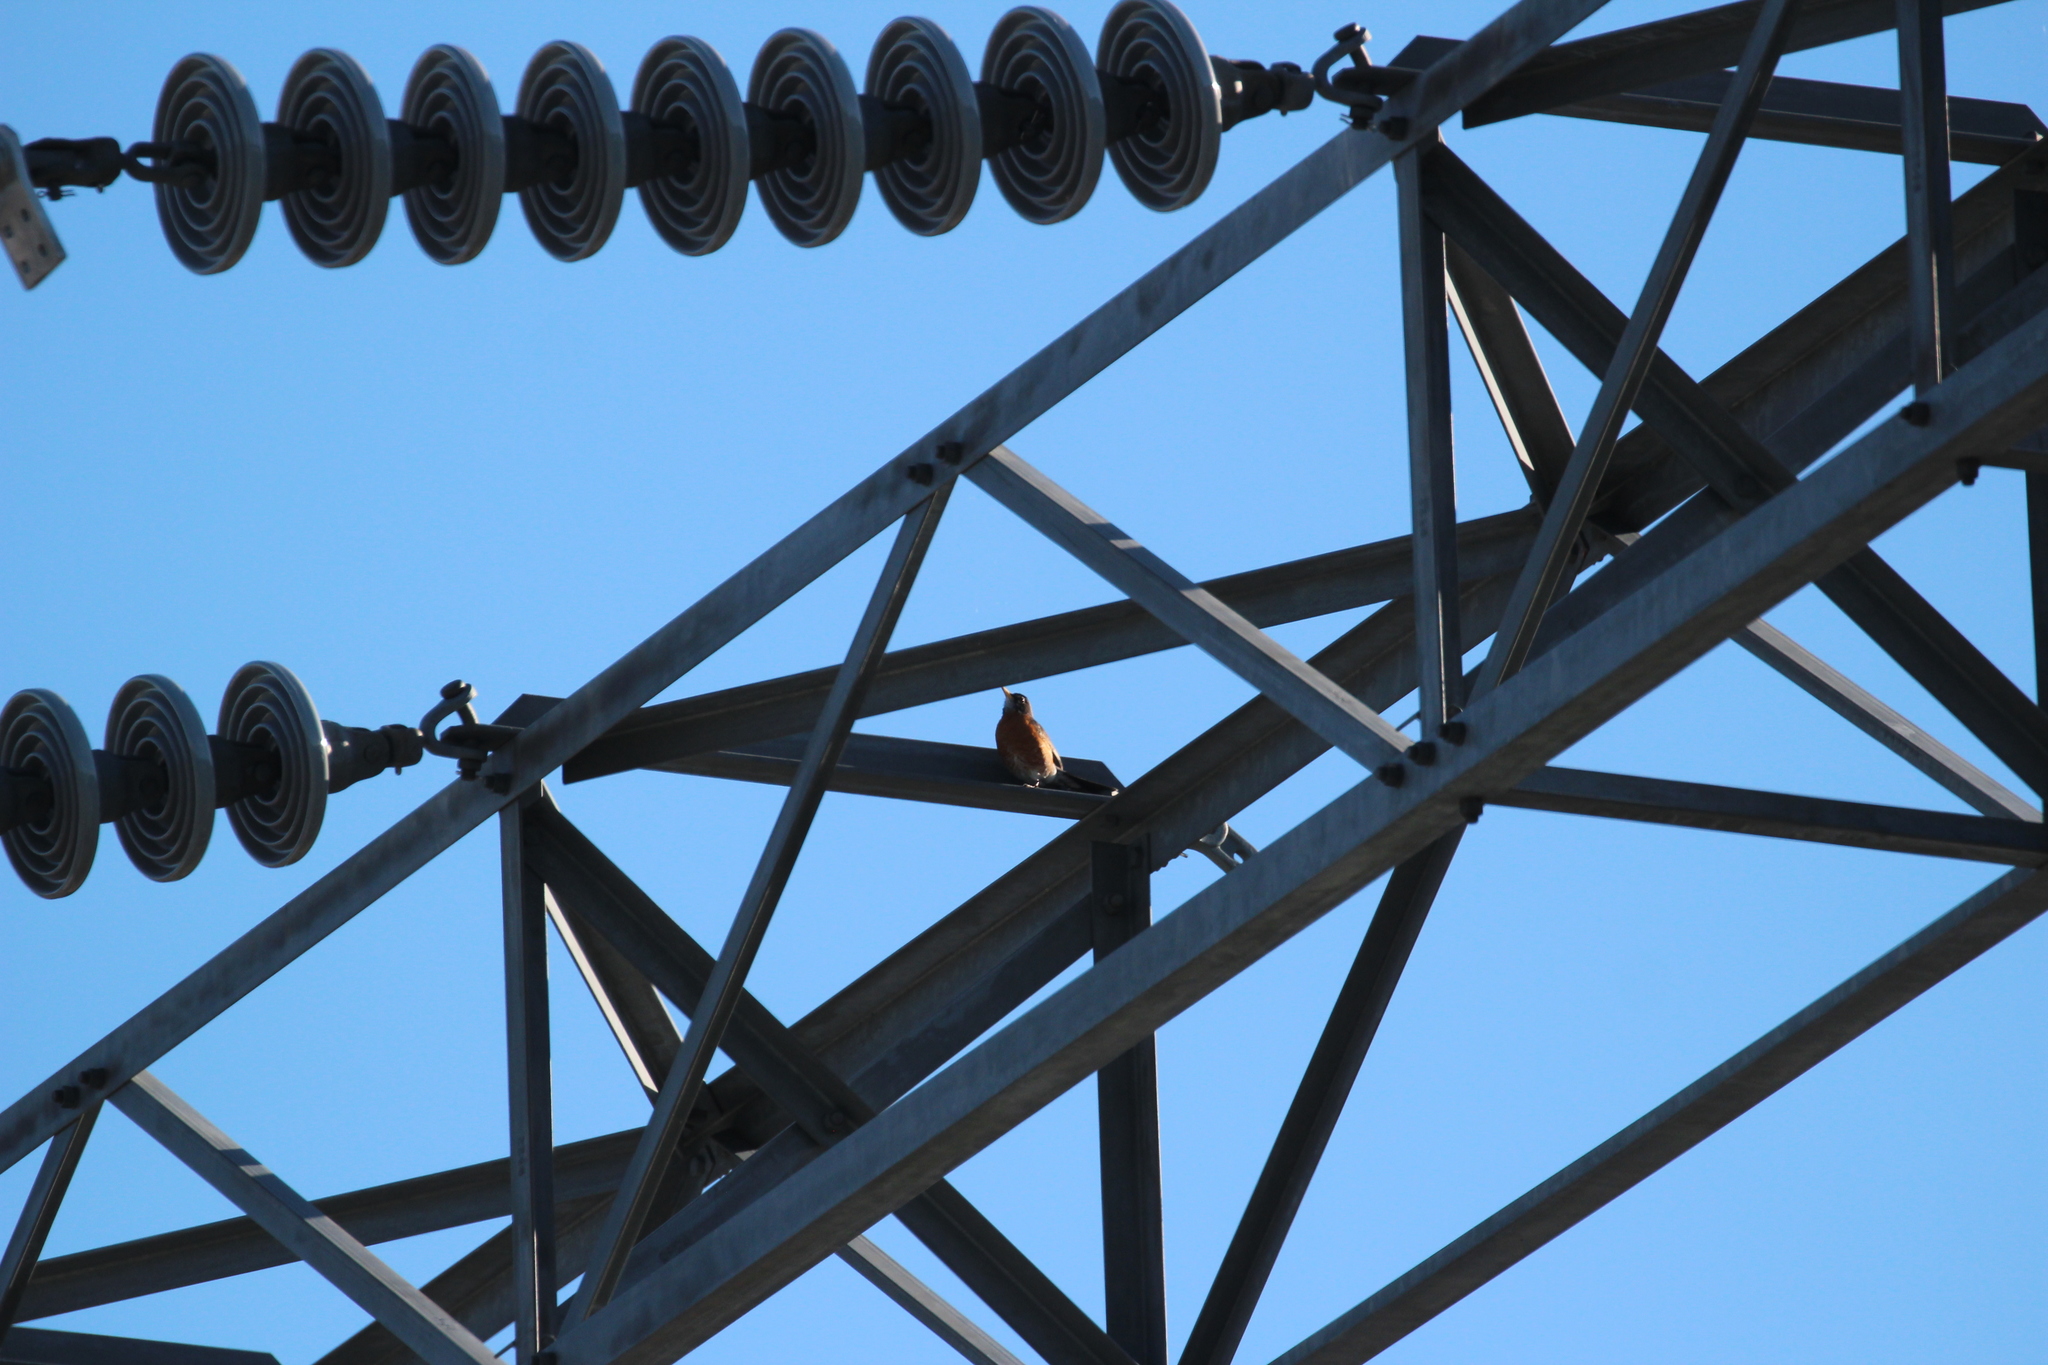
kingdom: Animalia
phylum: Chordata
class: Aves
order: Passeriformes
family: Turdidae
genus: Turdus
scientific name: Turdus migratorius
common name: American robin
